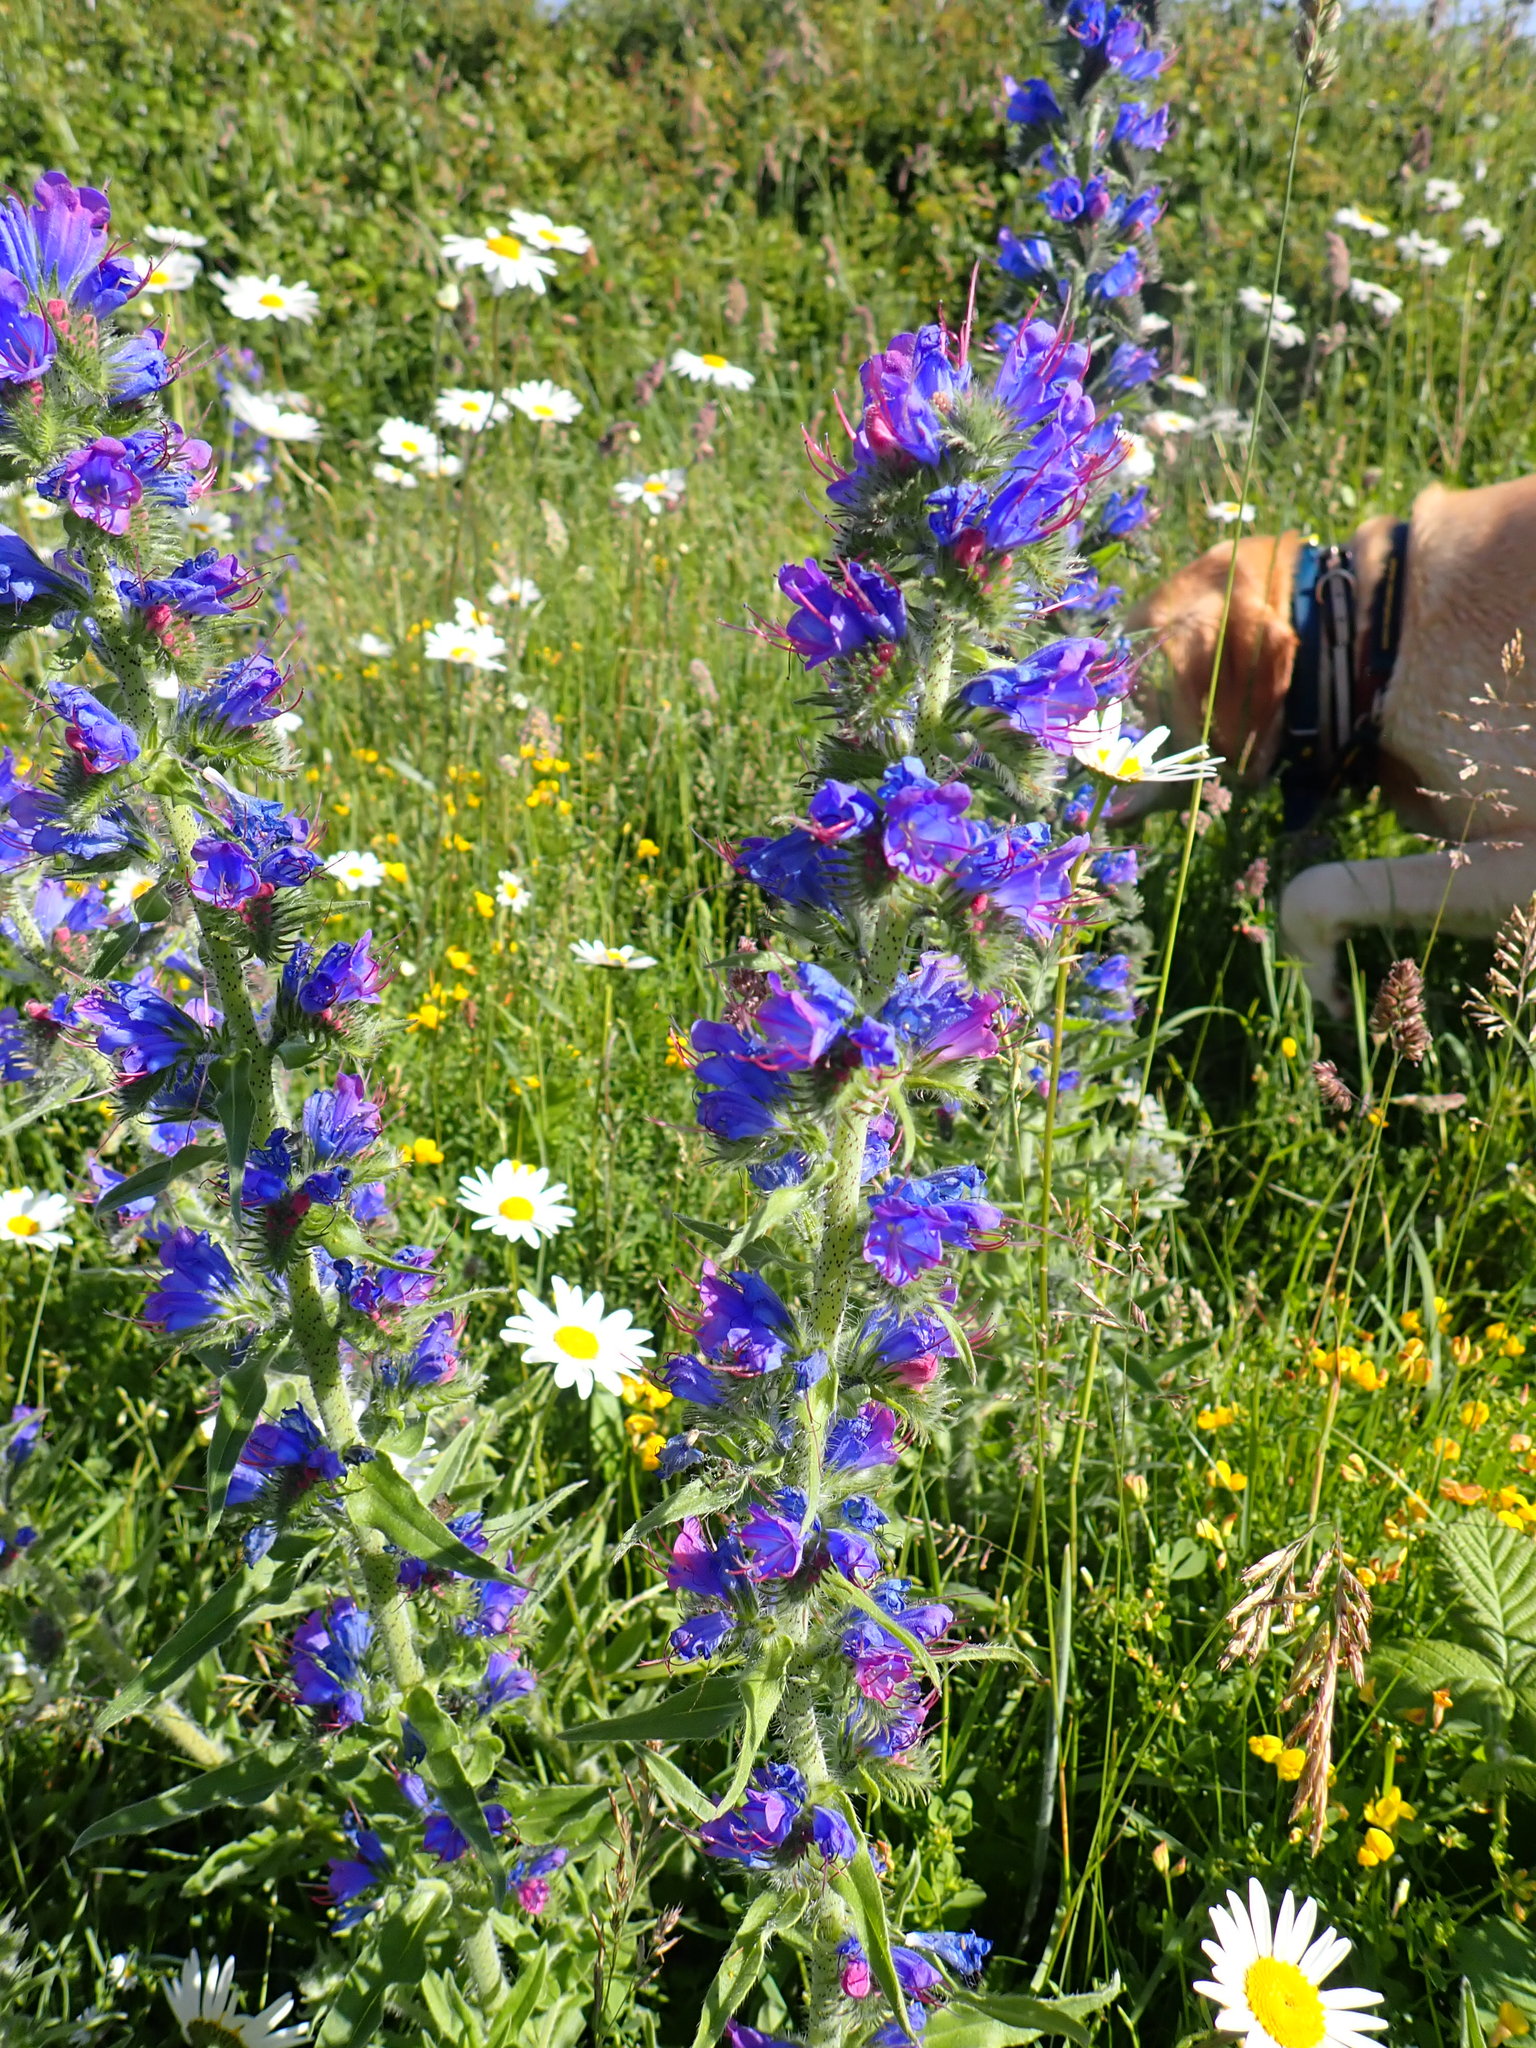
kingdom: Plantae
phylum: Tracheophyta
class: Magnoliopsida
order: Boraginales
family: Boraginaceae
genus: Echium
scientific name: Echium vulgare
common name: Common viper's bugloss
